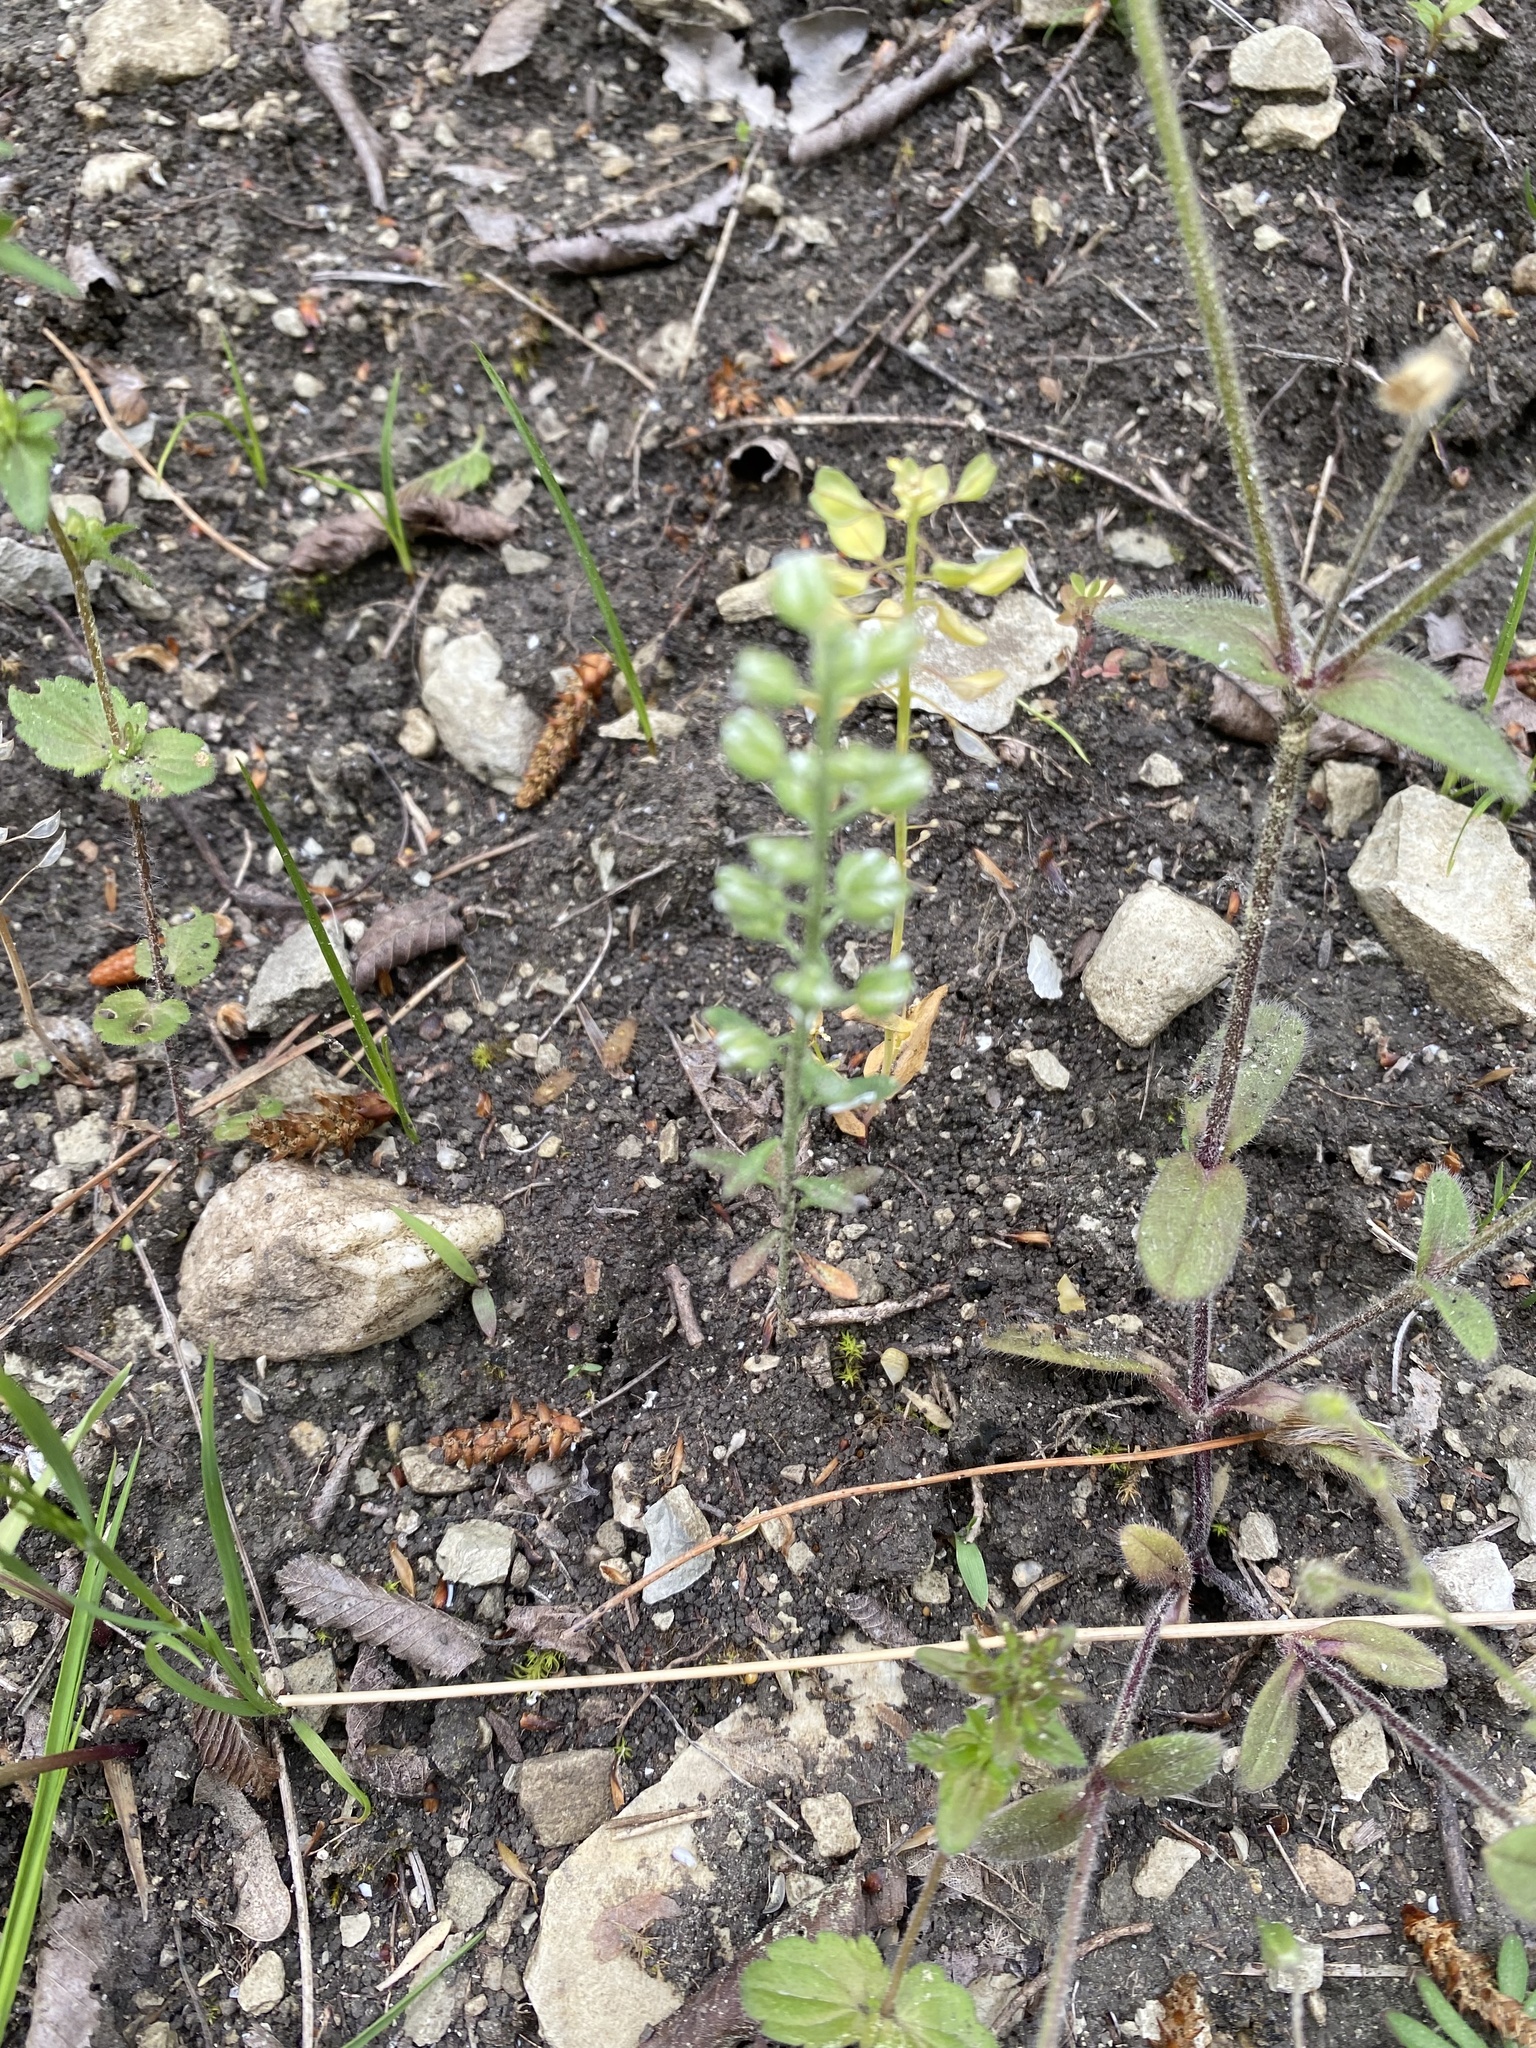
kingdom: Plantae
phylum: Tracheophyta
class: Magnoliopsida
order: Brassicales
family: Brassicaceae
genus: Alyssum
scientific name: Alyssum alyssoides
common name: Small alison
